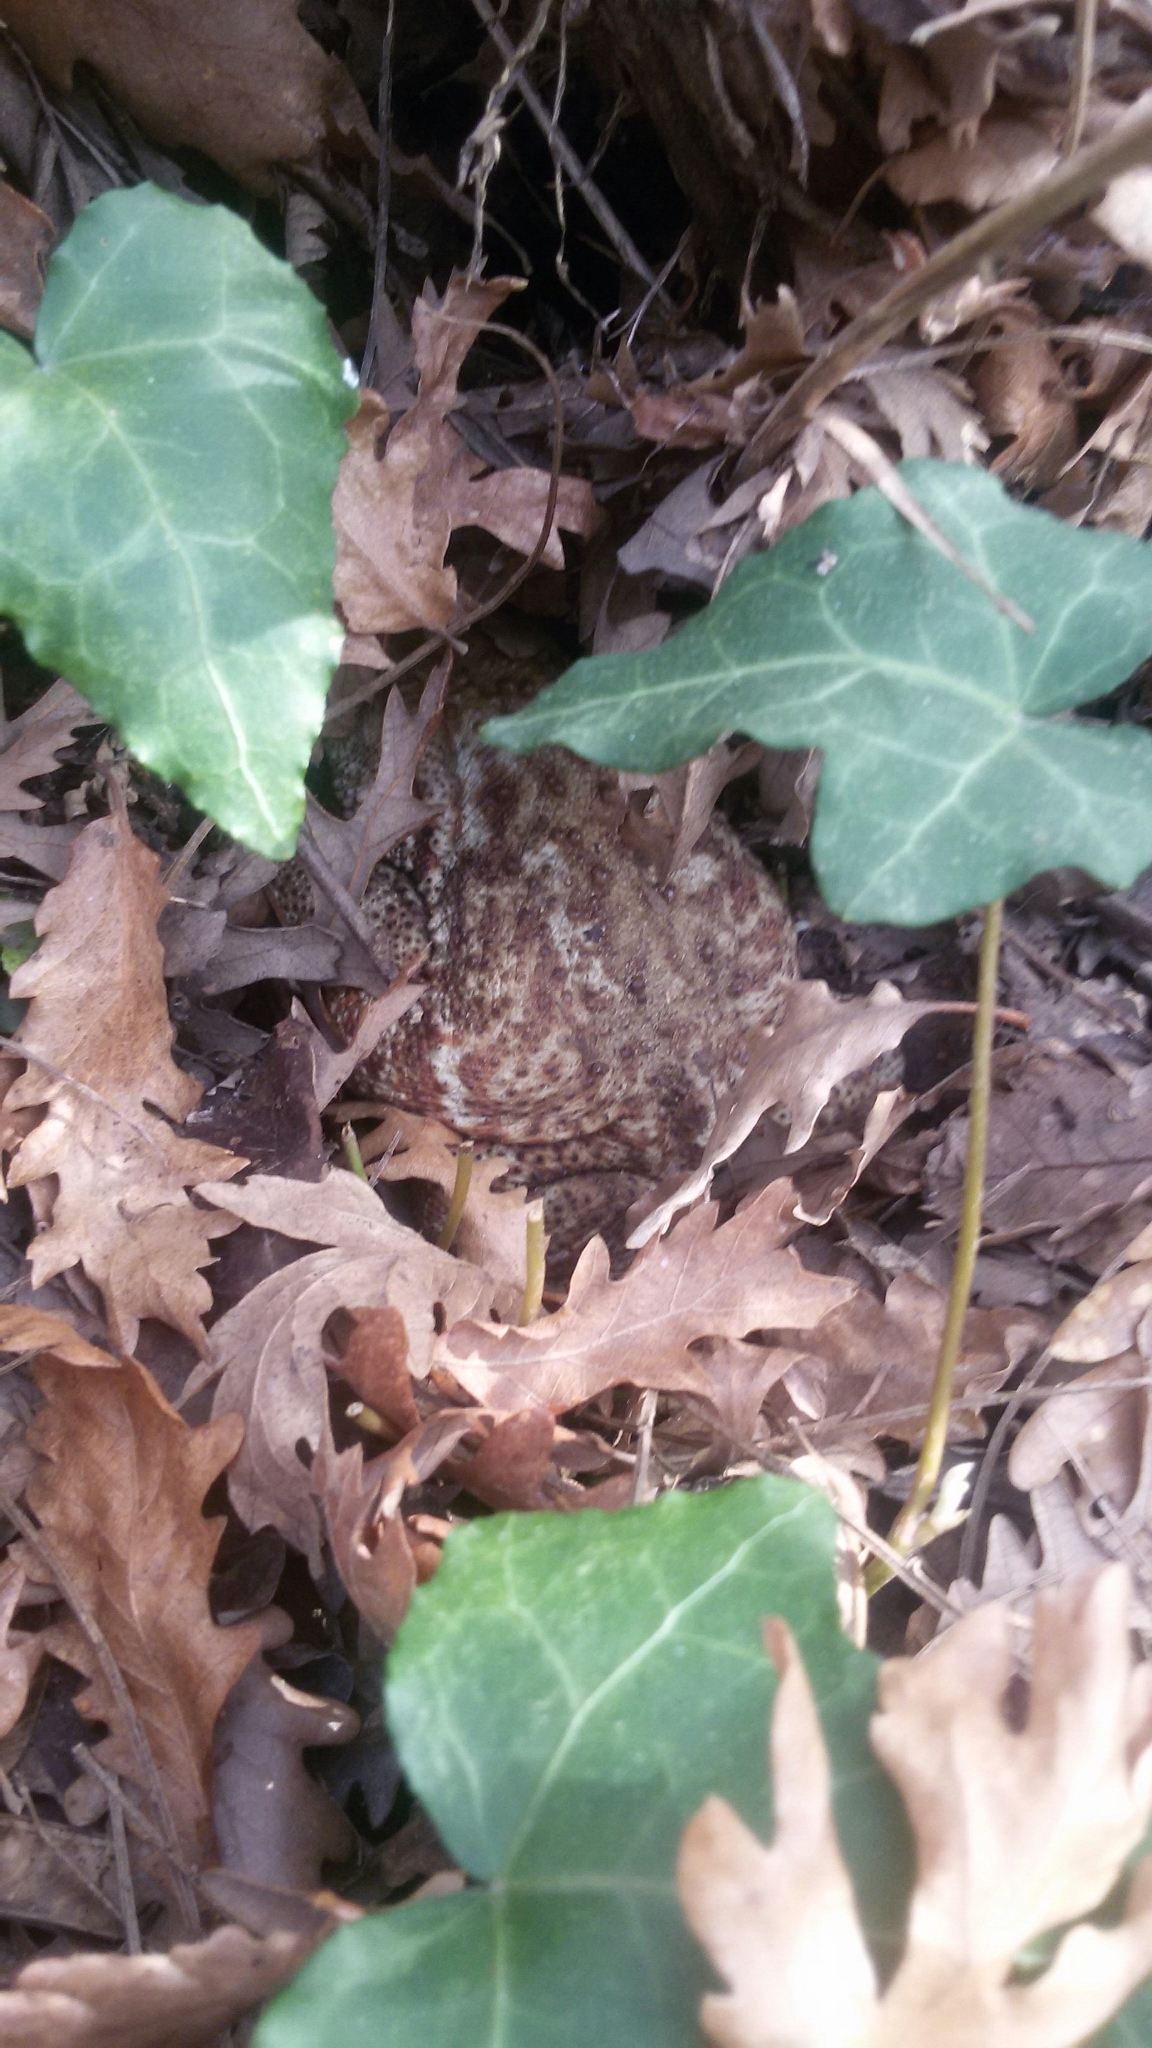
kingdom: Animalia
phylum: Chordata
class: Amphibia
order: Anura
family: Bufonidae
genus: Bufo
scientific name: Bufo bufo
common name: Common toad
